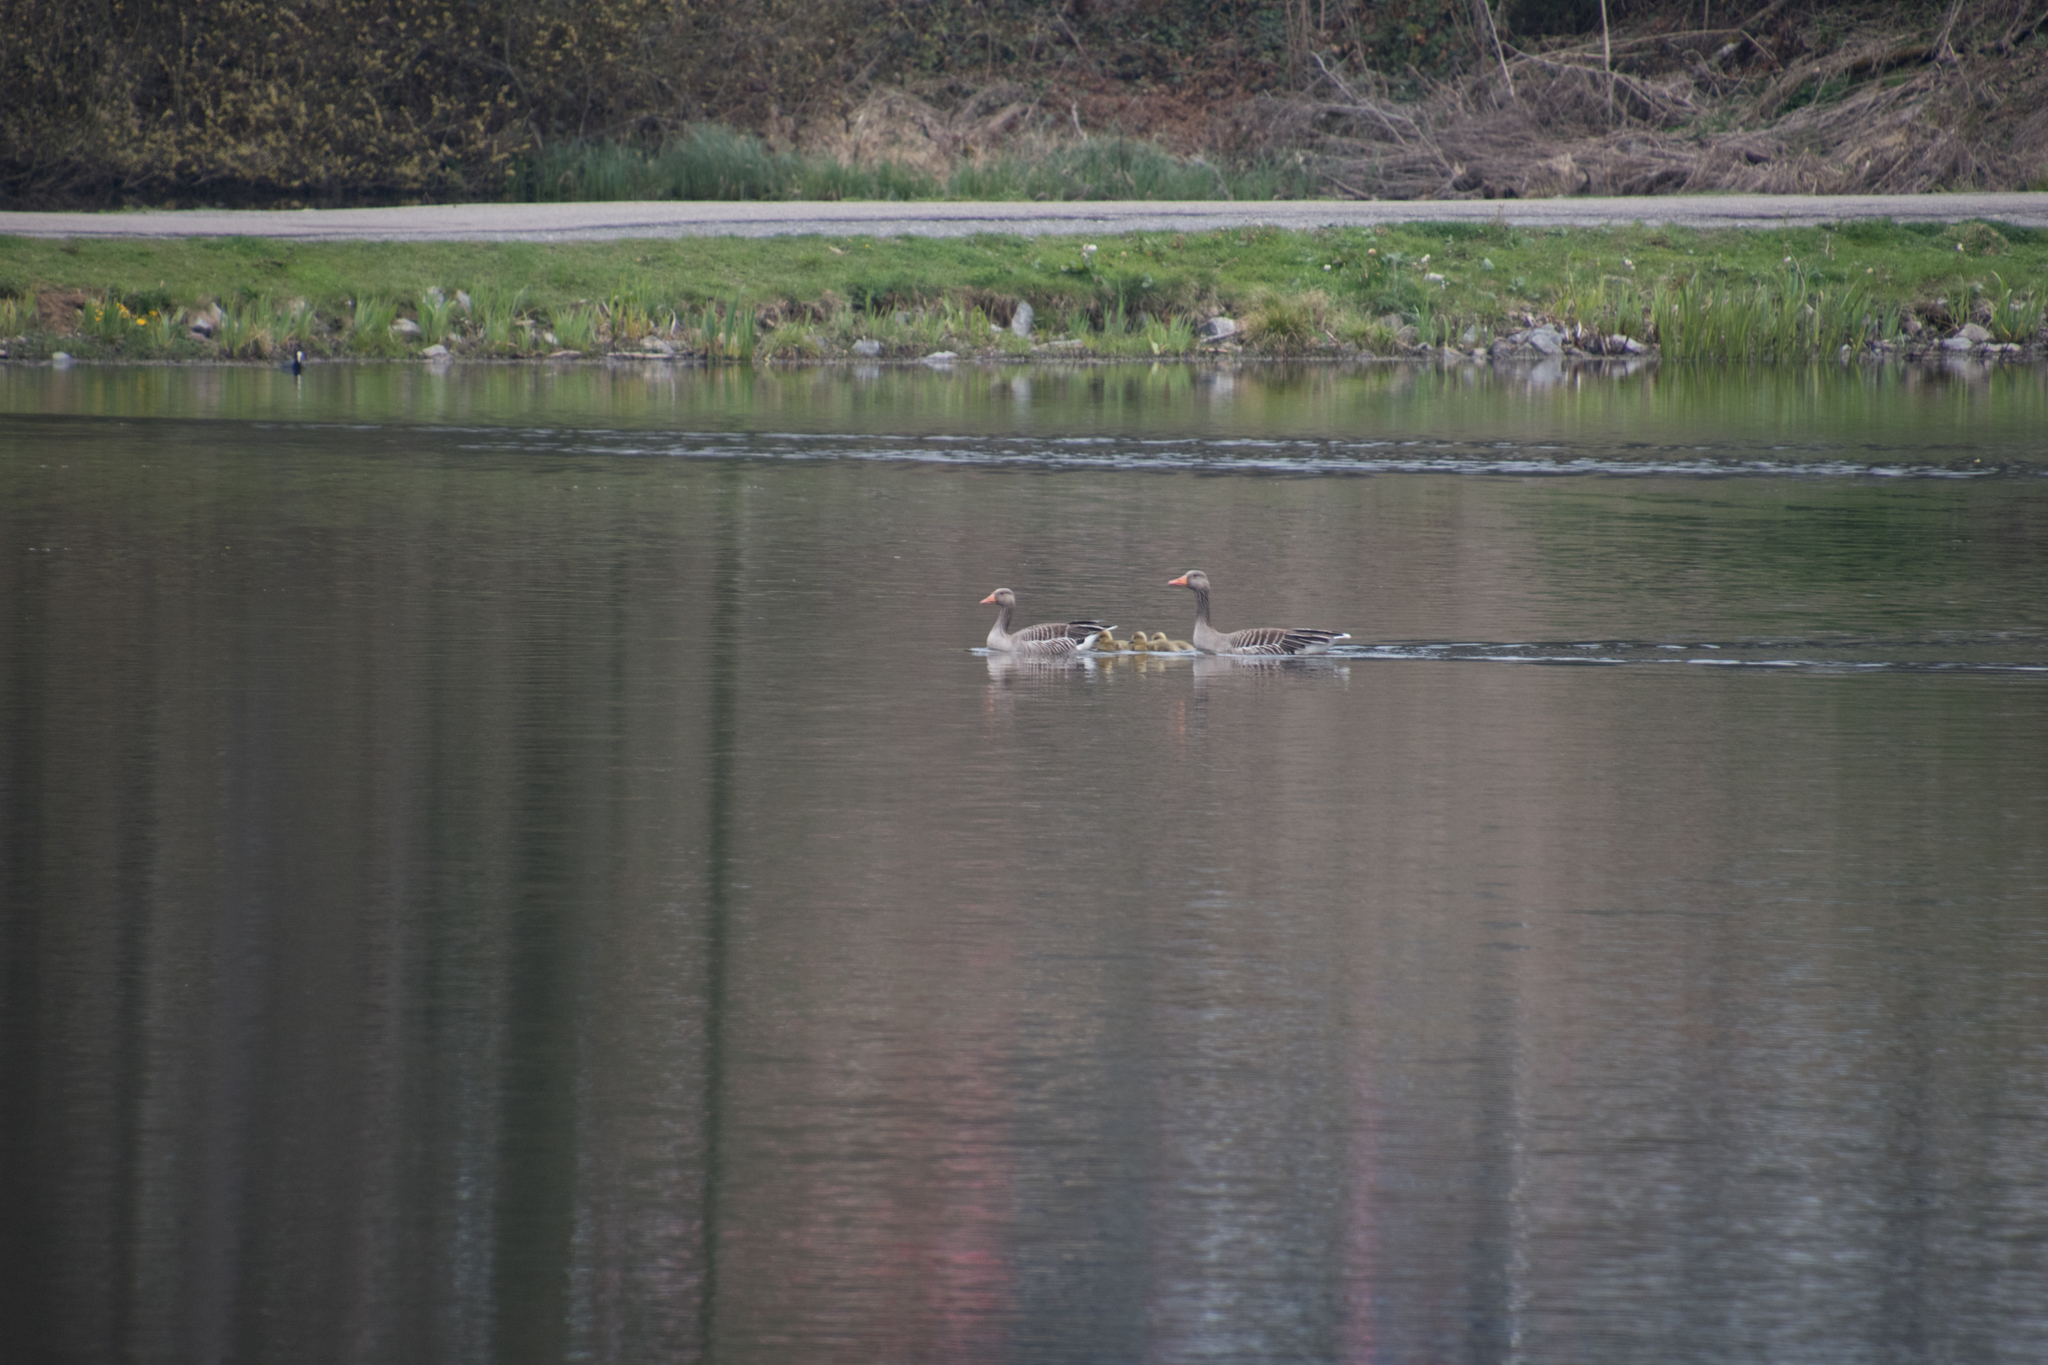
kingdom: Animalia
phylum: Chordata
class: Aves
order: Anseriformes
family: Anatidae
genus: Anser
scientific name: Anser anser
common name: Greylag goose
